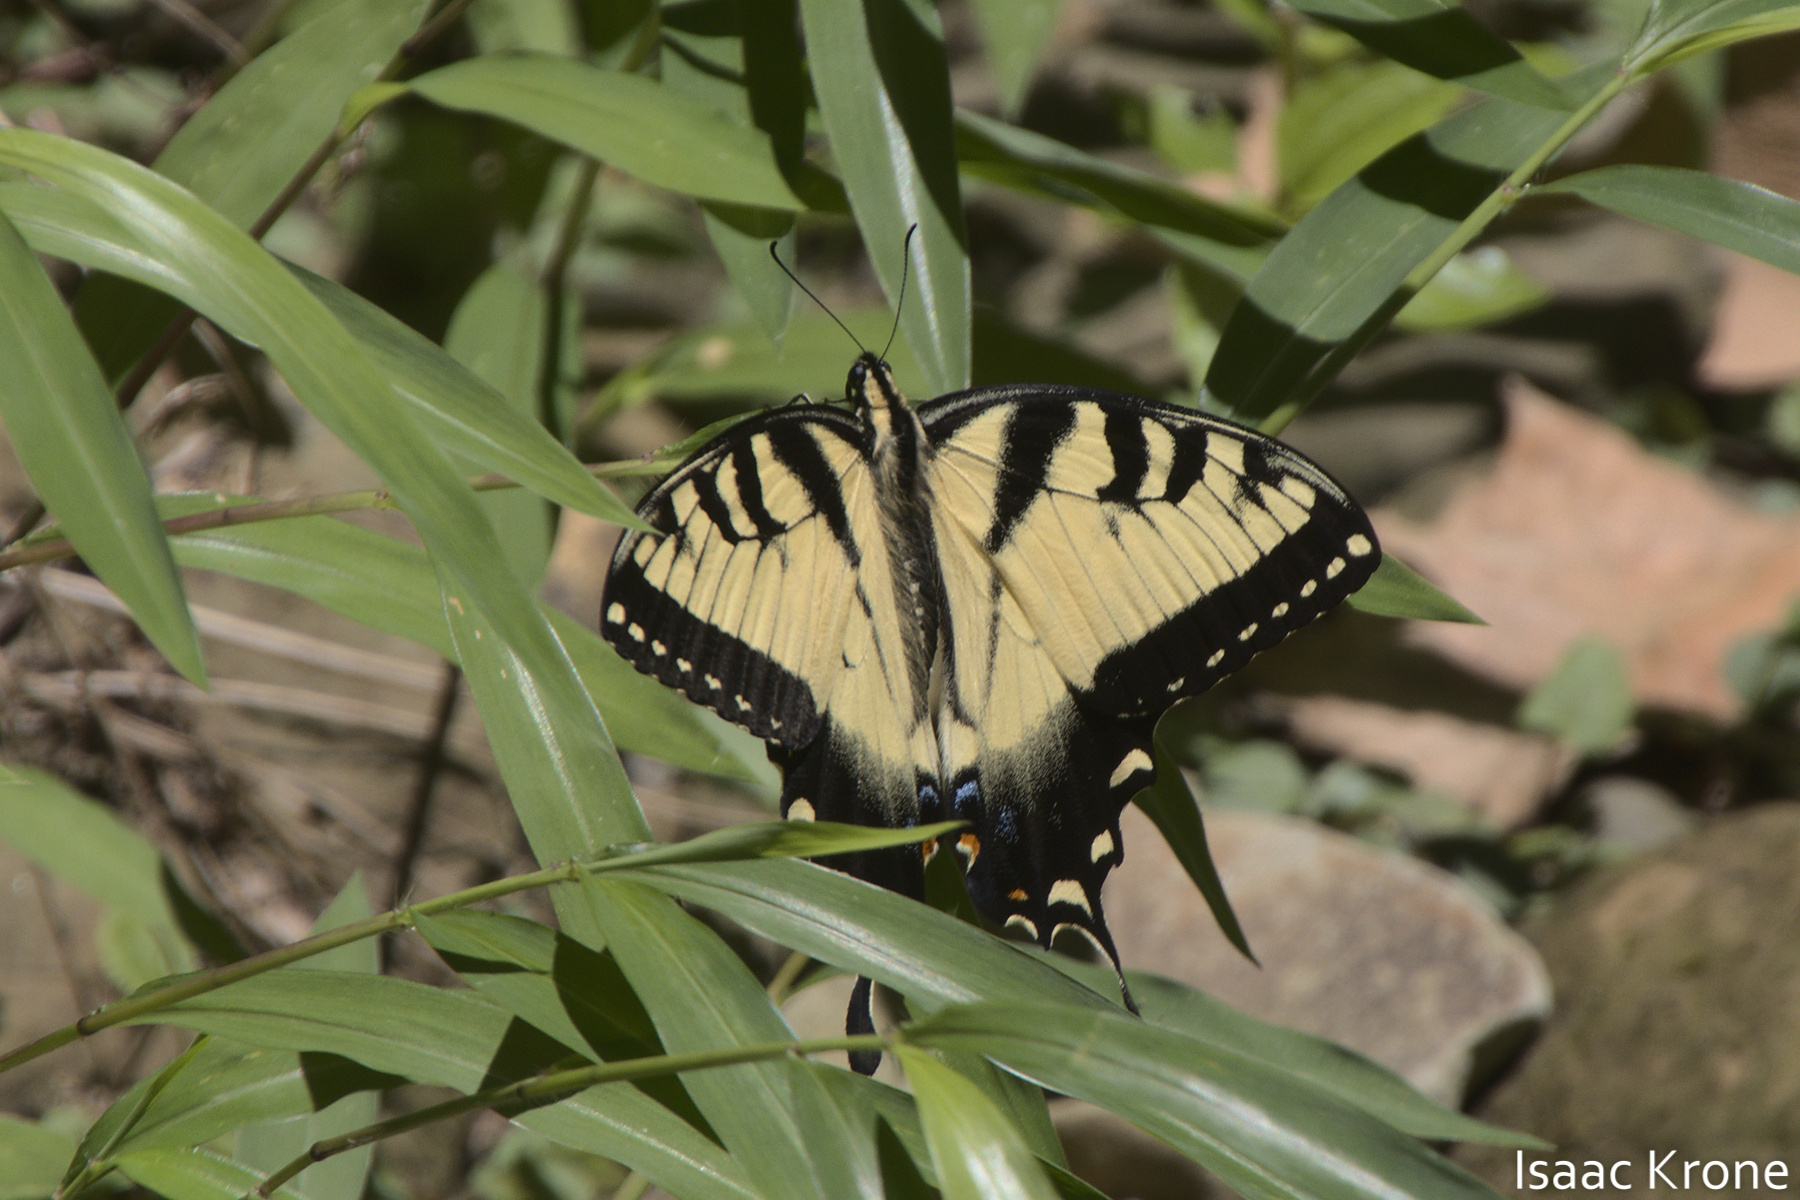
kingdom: Animalia
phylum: Arthropoda
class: Insecta
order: Lepidoptera
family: Papilionidae
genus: Papilio
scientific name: Papilio glaucus
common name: Tiger swallowtail
